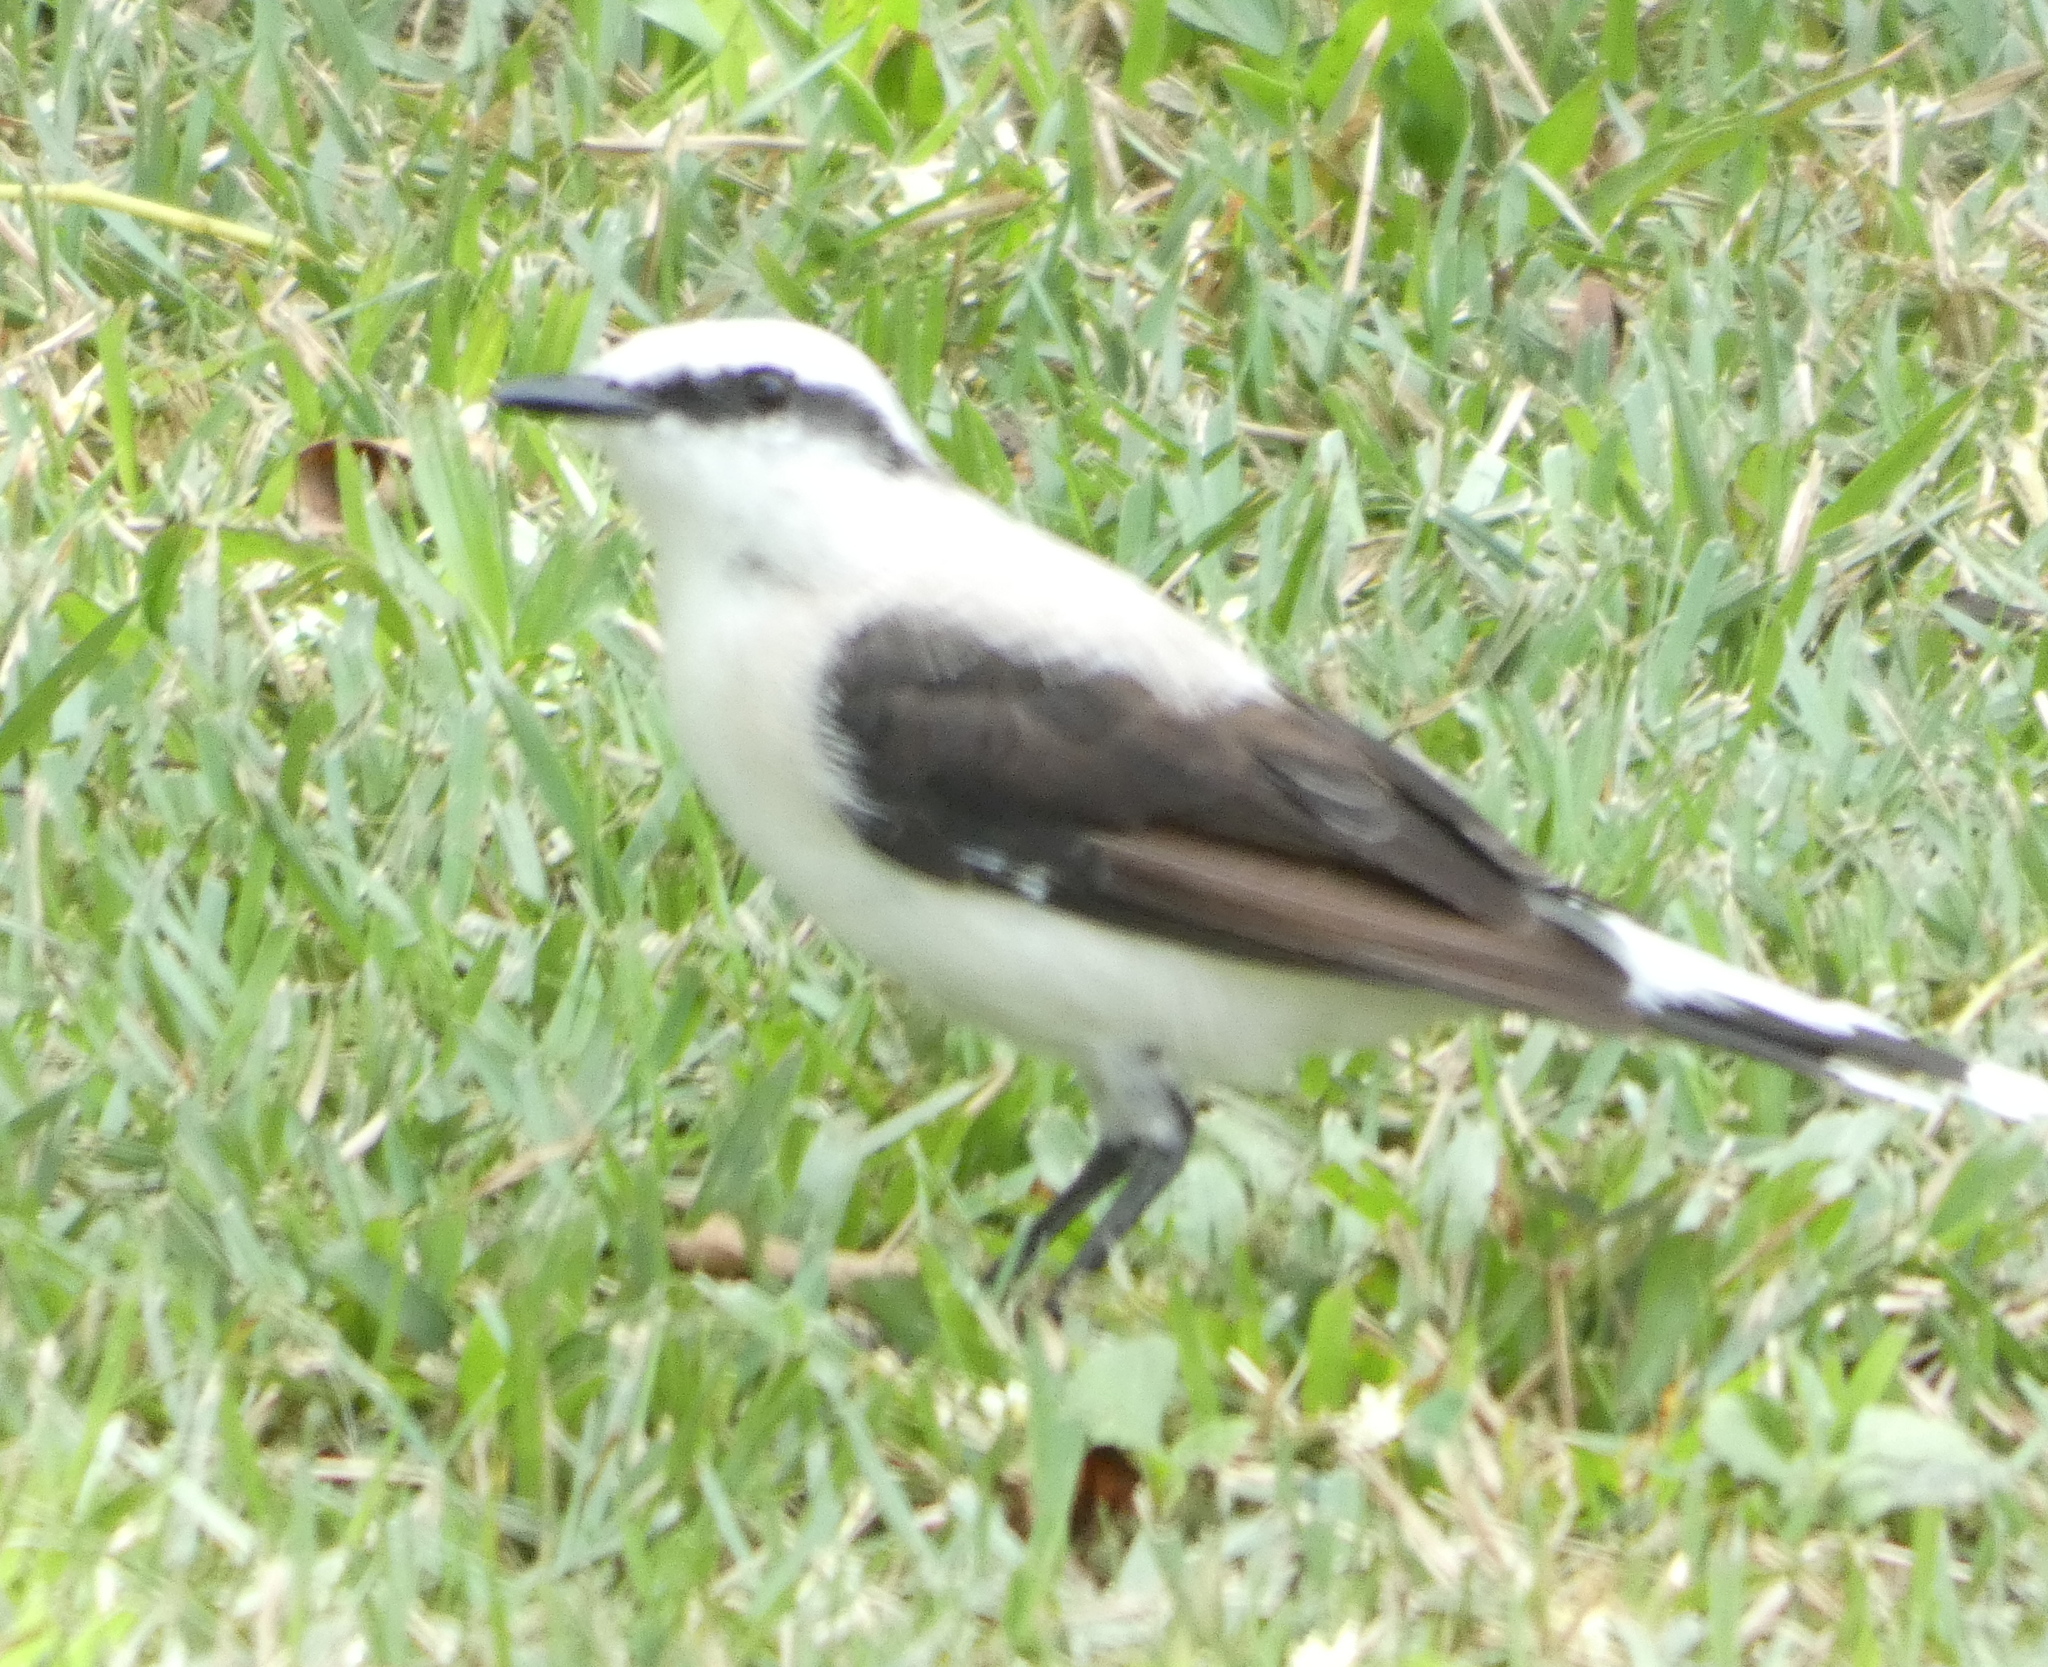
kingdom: Animalia
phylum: Chordata
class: Aves
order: Passeriformes
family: Tyrannidae
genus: Fluvicola
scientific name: Fluvicola nengeta
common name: Masked water tyrant
